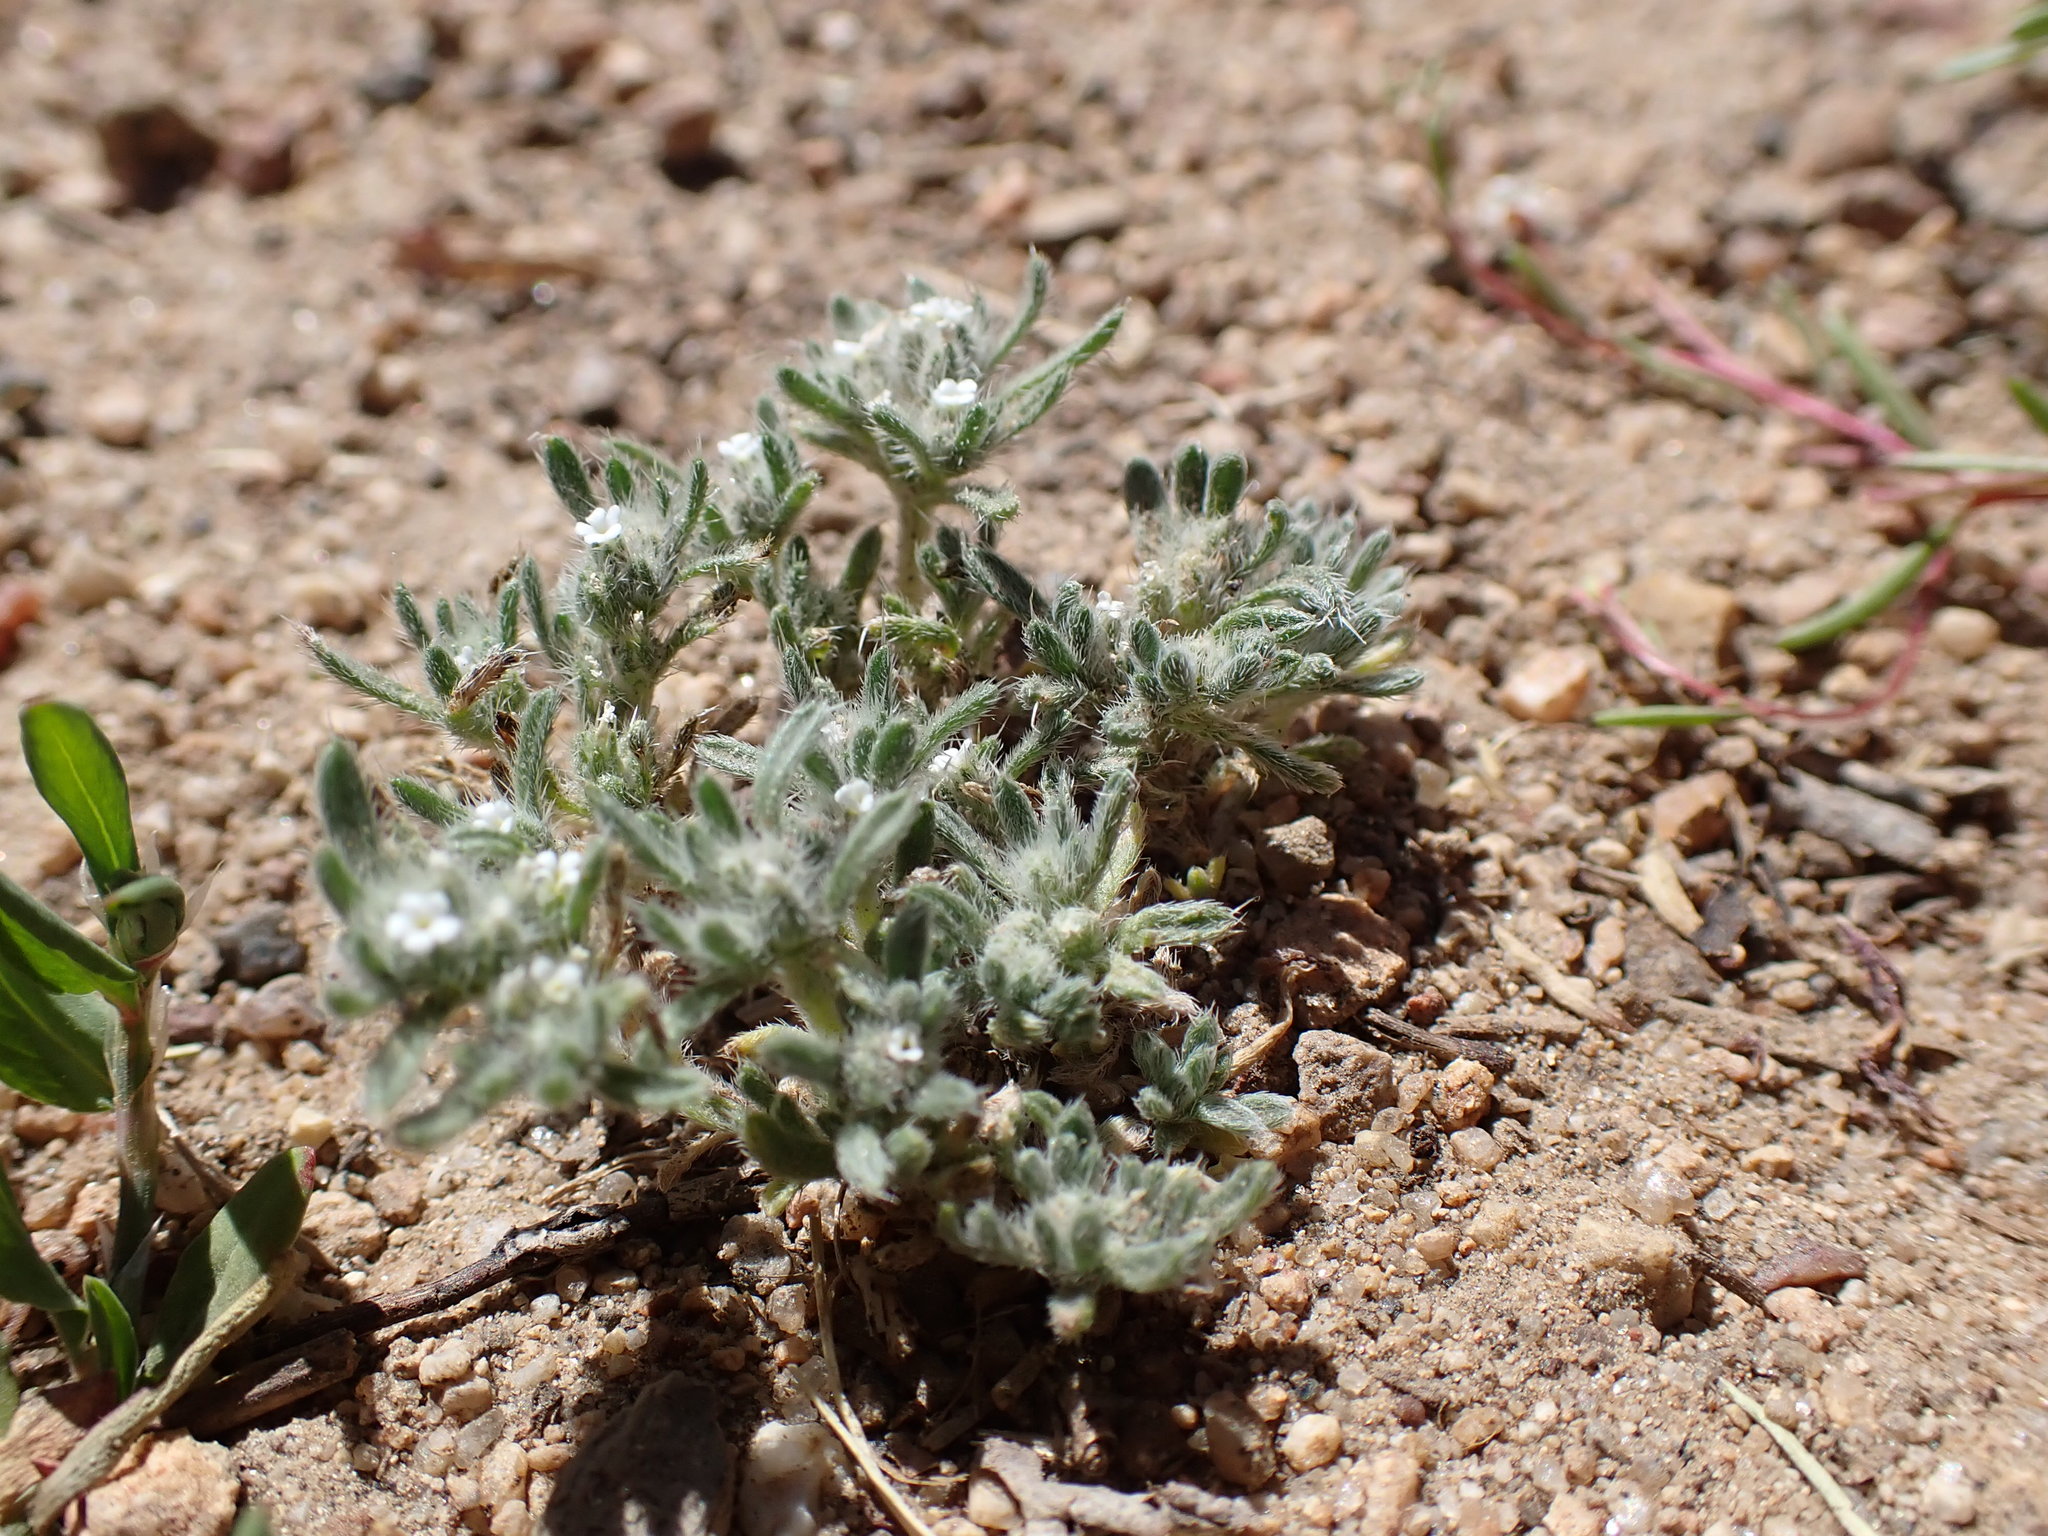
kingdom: Plantae
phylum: Tracheophyta
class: Magnoliopsida
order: Boraginales
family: Boraginaceae
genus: Greeneocharis
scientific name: Greeneocharis circumscissa
